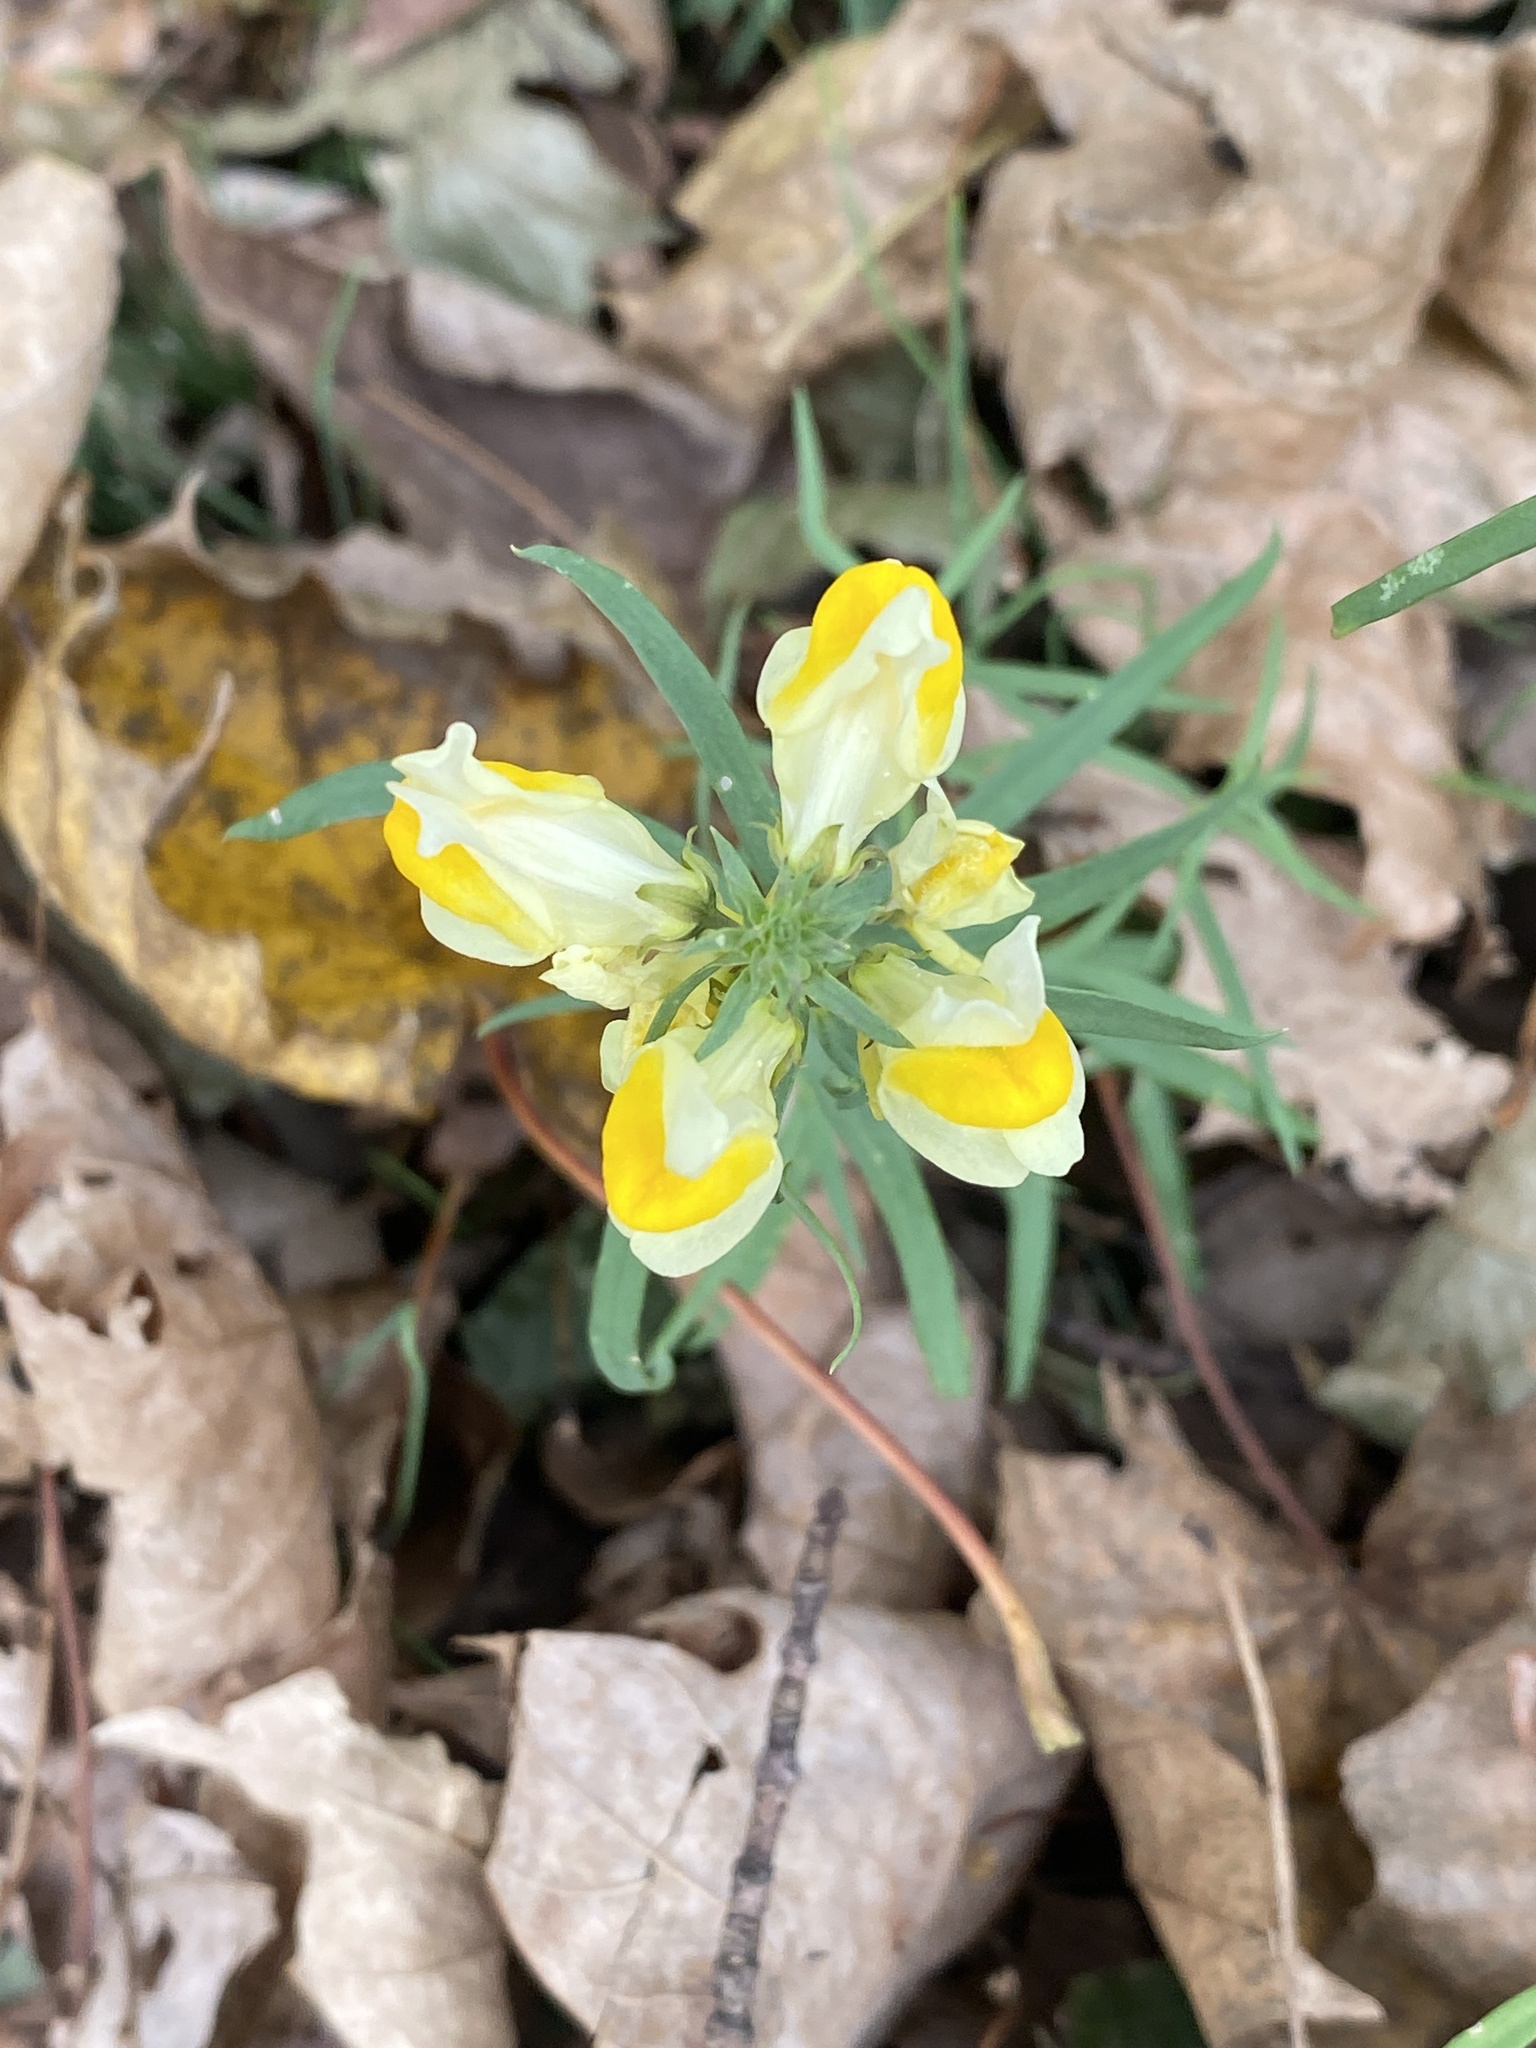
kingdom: Plantae
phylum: Tracheophyta
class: Magnoliopsida
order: Lamiales
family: Plantaginaceae
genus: Linaria
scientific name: Linaria vulgaris
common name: Butter and eggs
